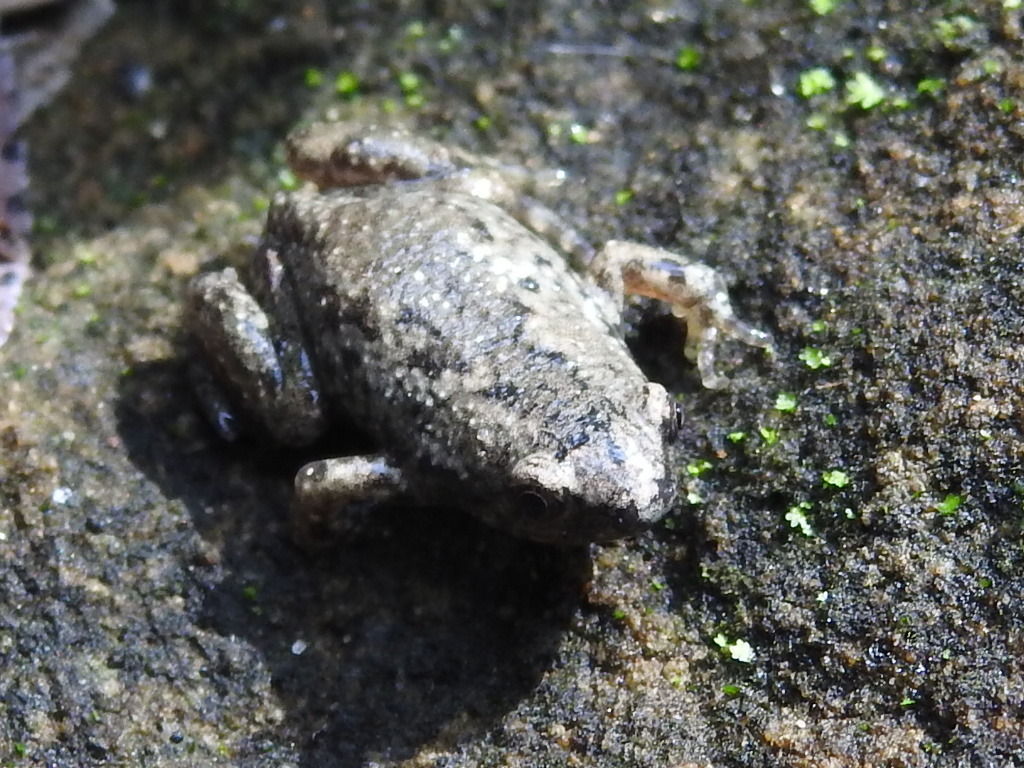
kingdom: Animalia
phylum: Chordata
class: Amphibia
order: Anura
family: Microhylidae
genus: Gastrophryne
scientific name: Gastrophryne olivacea
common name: Great plains narrow-mouthed toad
